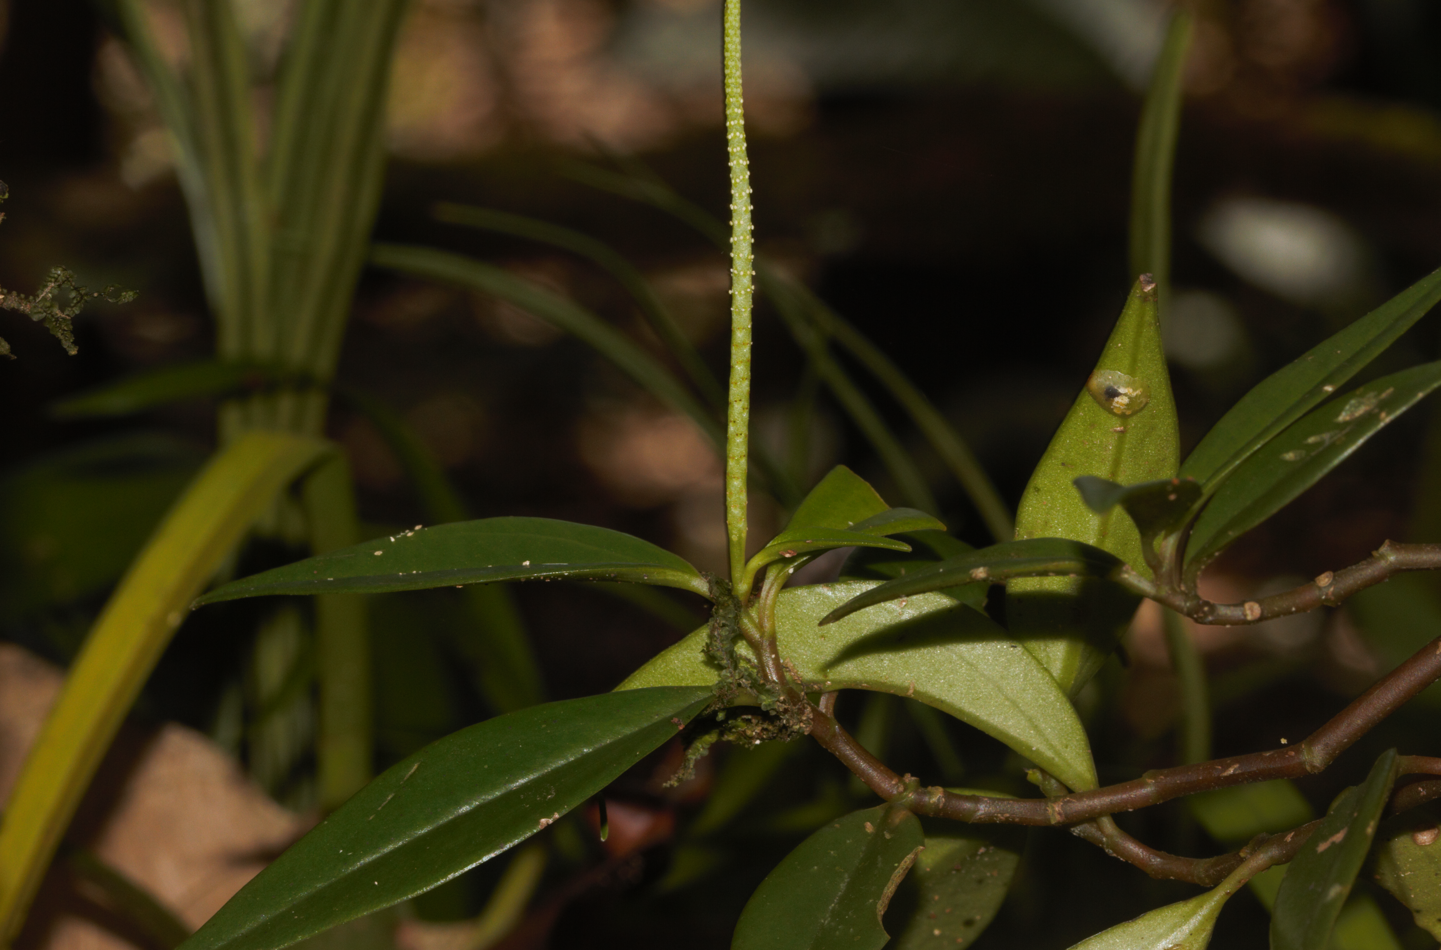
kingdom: Plantae
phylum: Tracheophyta
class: Magnoliopsida
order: Piperales
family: Piperaceae
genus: Peperomia
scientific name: Peperomia glabella
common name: Cypress peperomia
